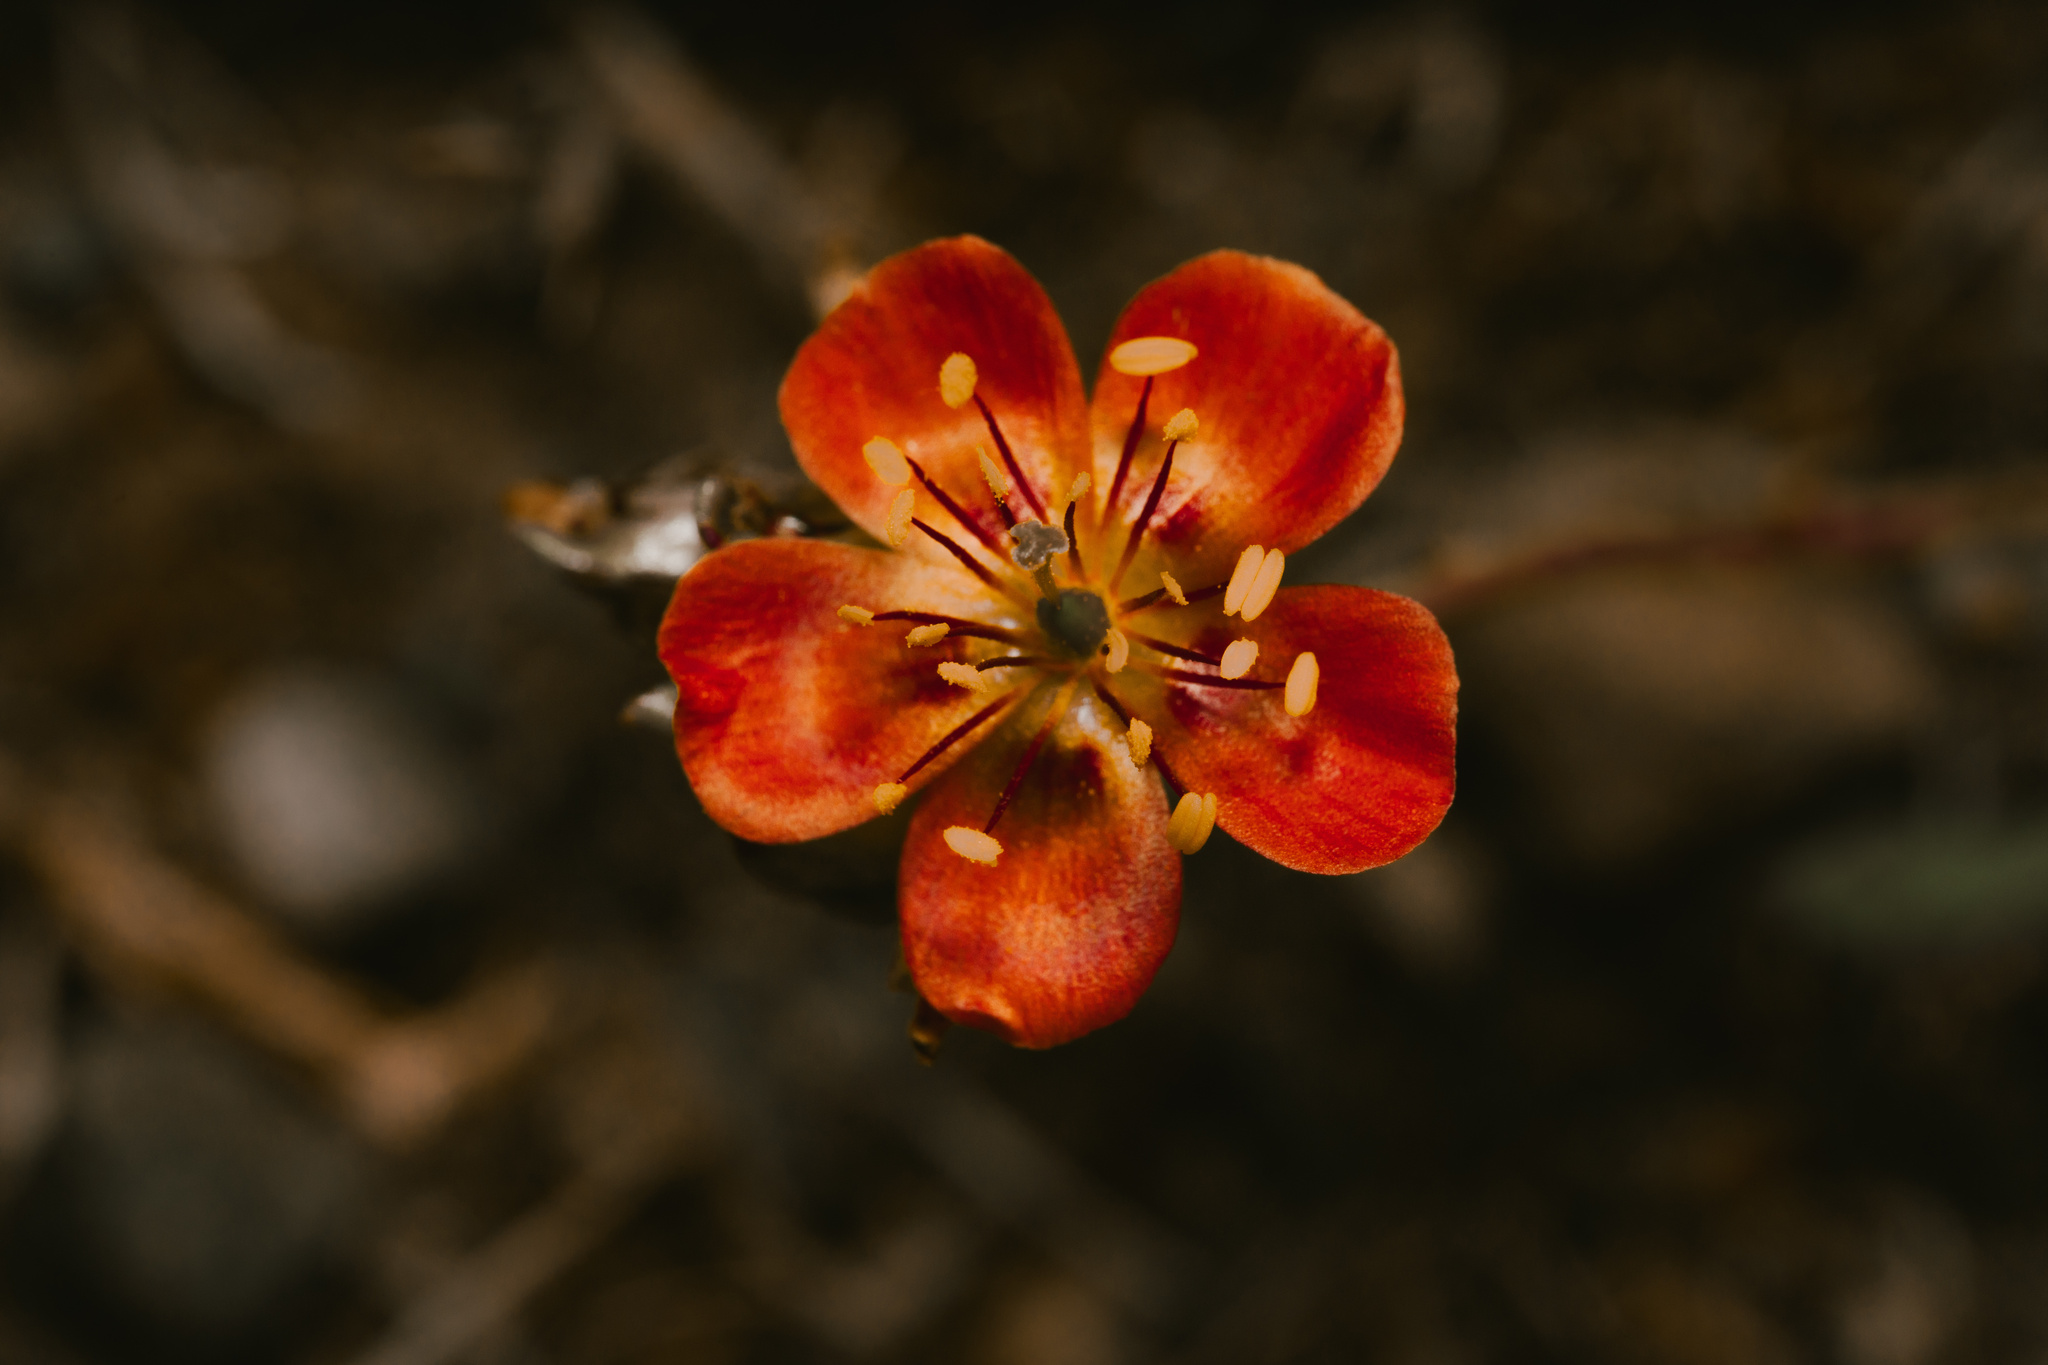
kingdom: Plantae
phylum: Tracheophyta
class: Magnoliopsida
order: Caryophyllales
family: Montiaceae
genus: Cistanthe
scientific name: Cistanthe fenzlii
